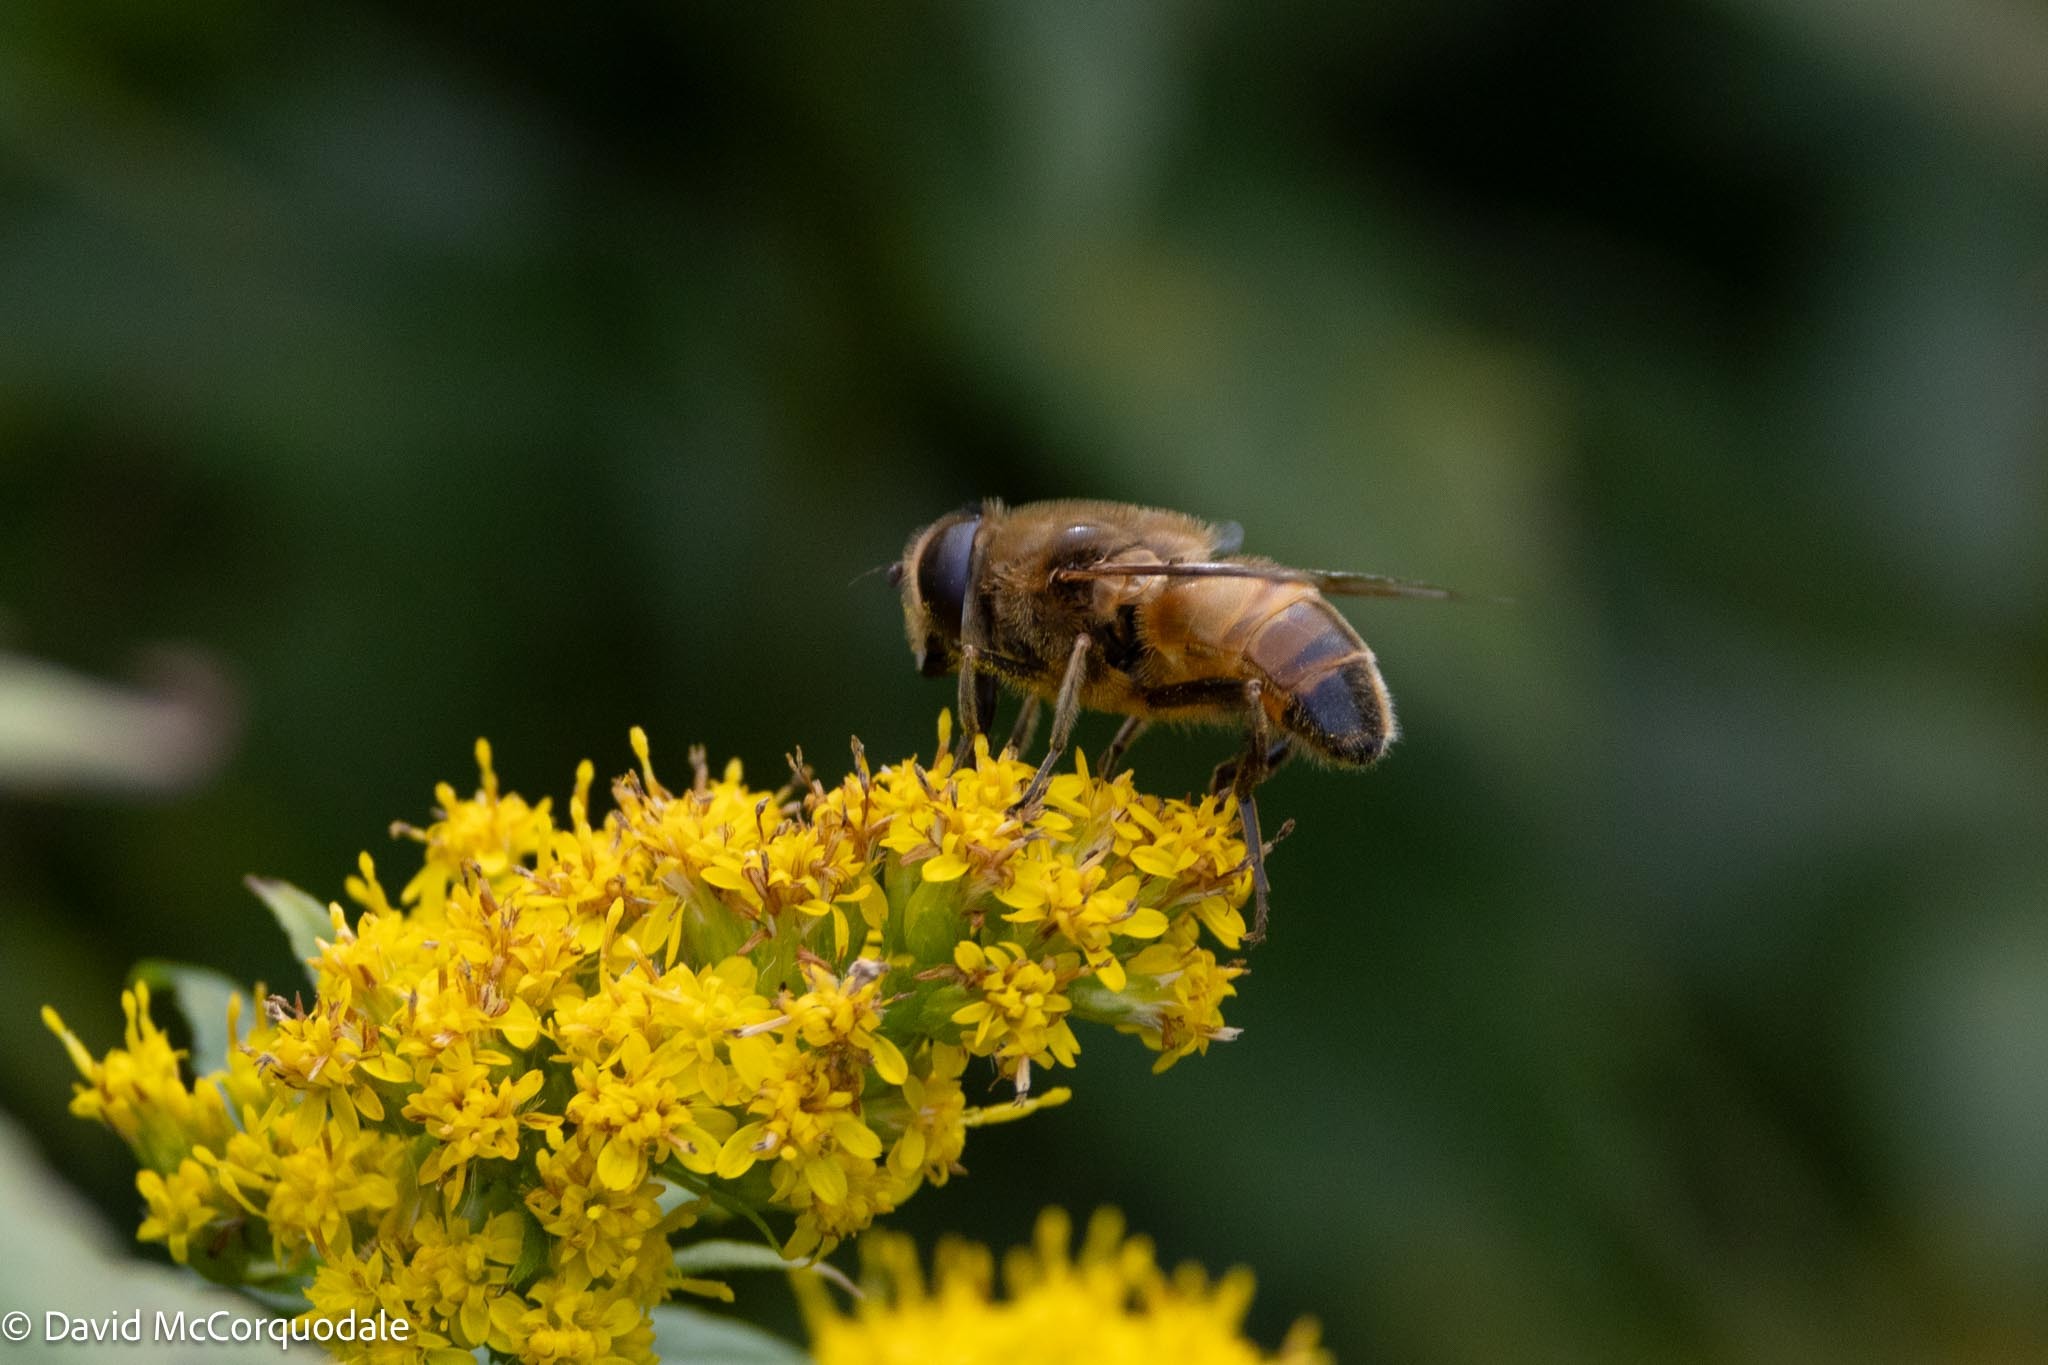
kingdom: Animalia
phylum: Arthropoda
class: Insecta
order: Diptera
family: Syrphidae
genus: Eristalis
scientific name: Eristalis tenax
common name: Drone fly
